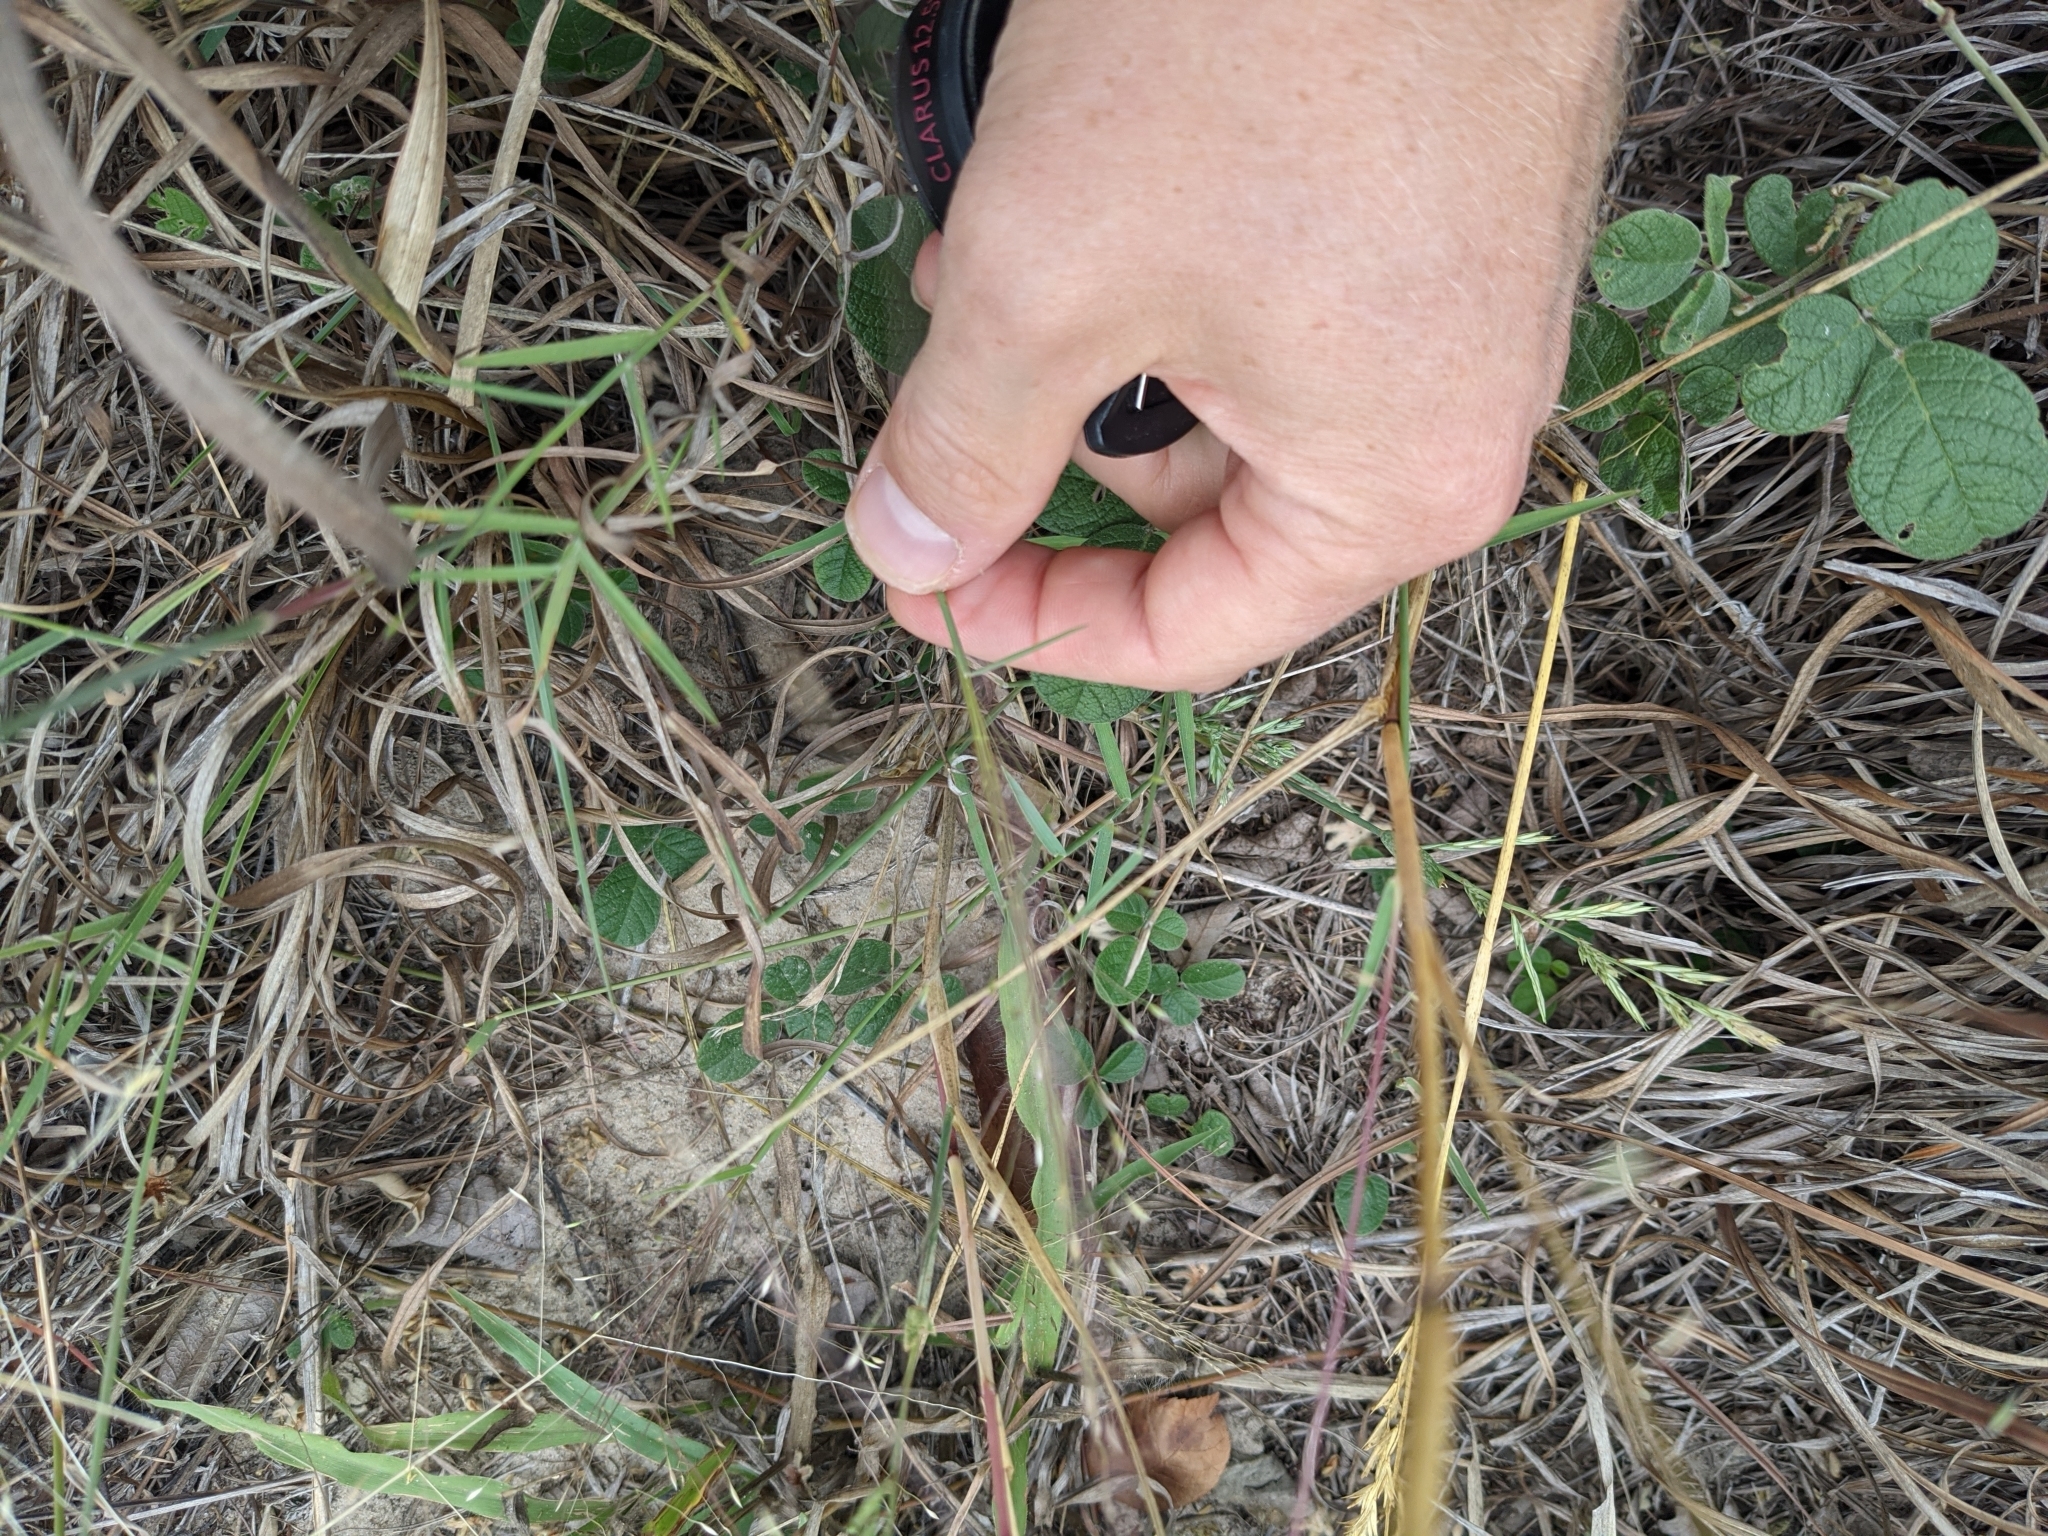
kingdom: Plantae
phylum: Tracheophyta
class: Liliopsida
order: Poales
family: Poaceae
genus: Digitaria
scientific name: Digitaria cognata
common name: Fall witchgrass
